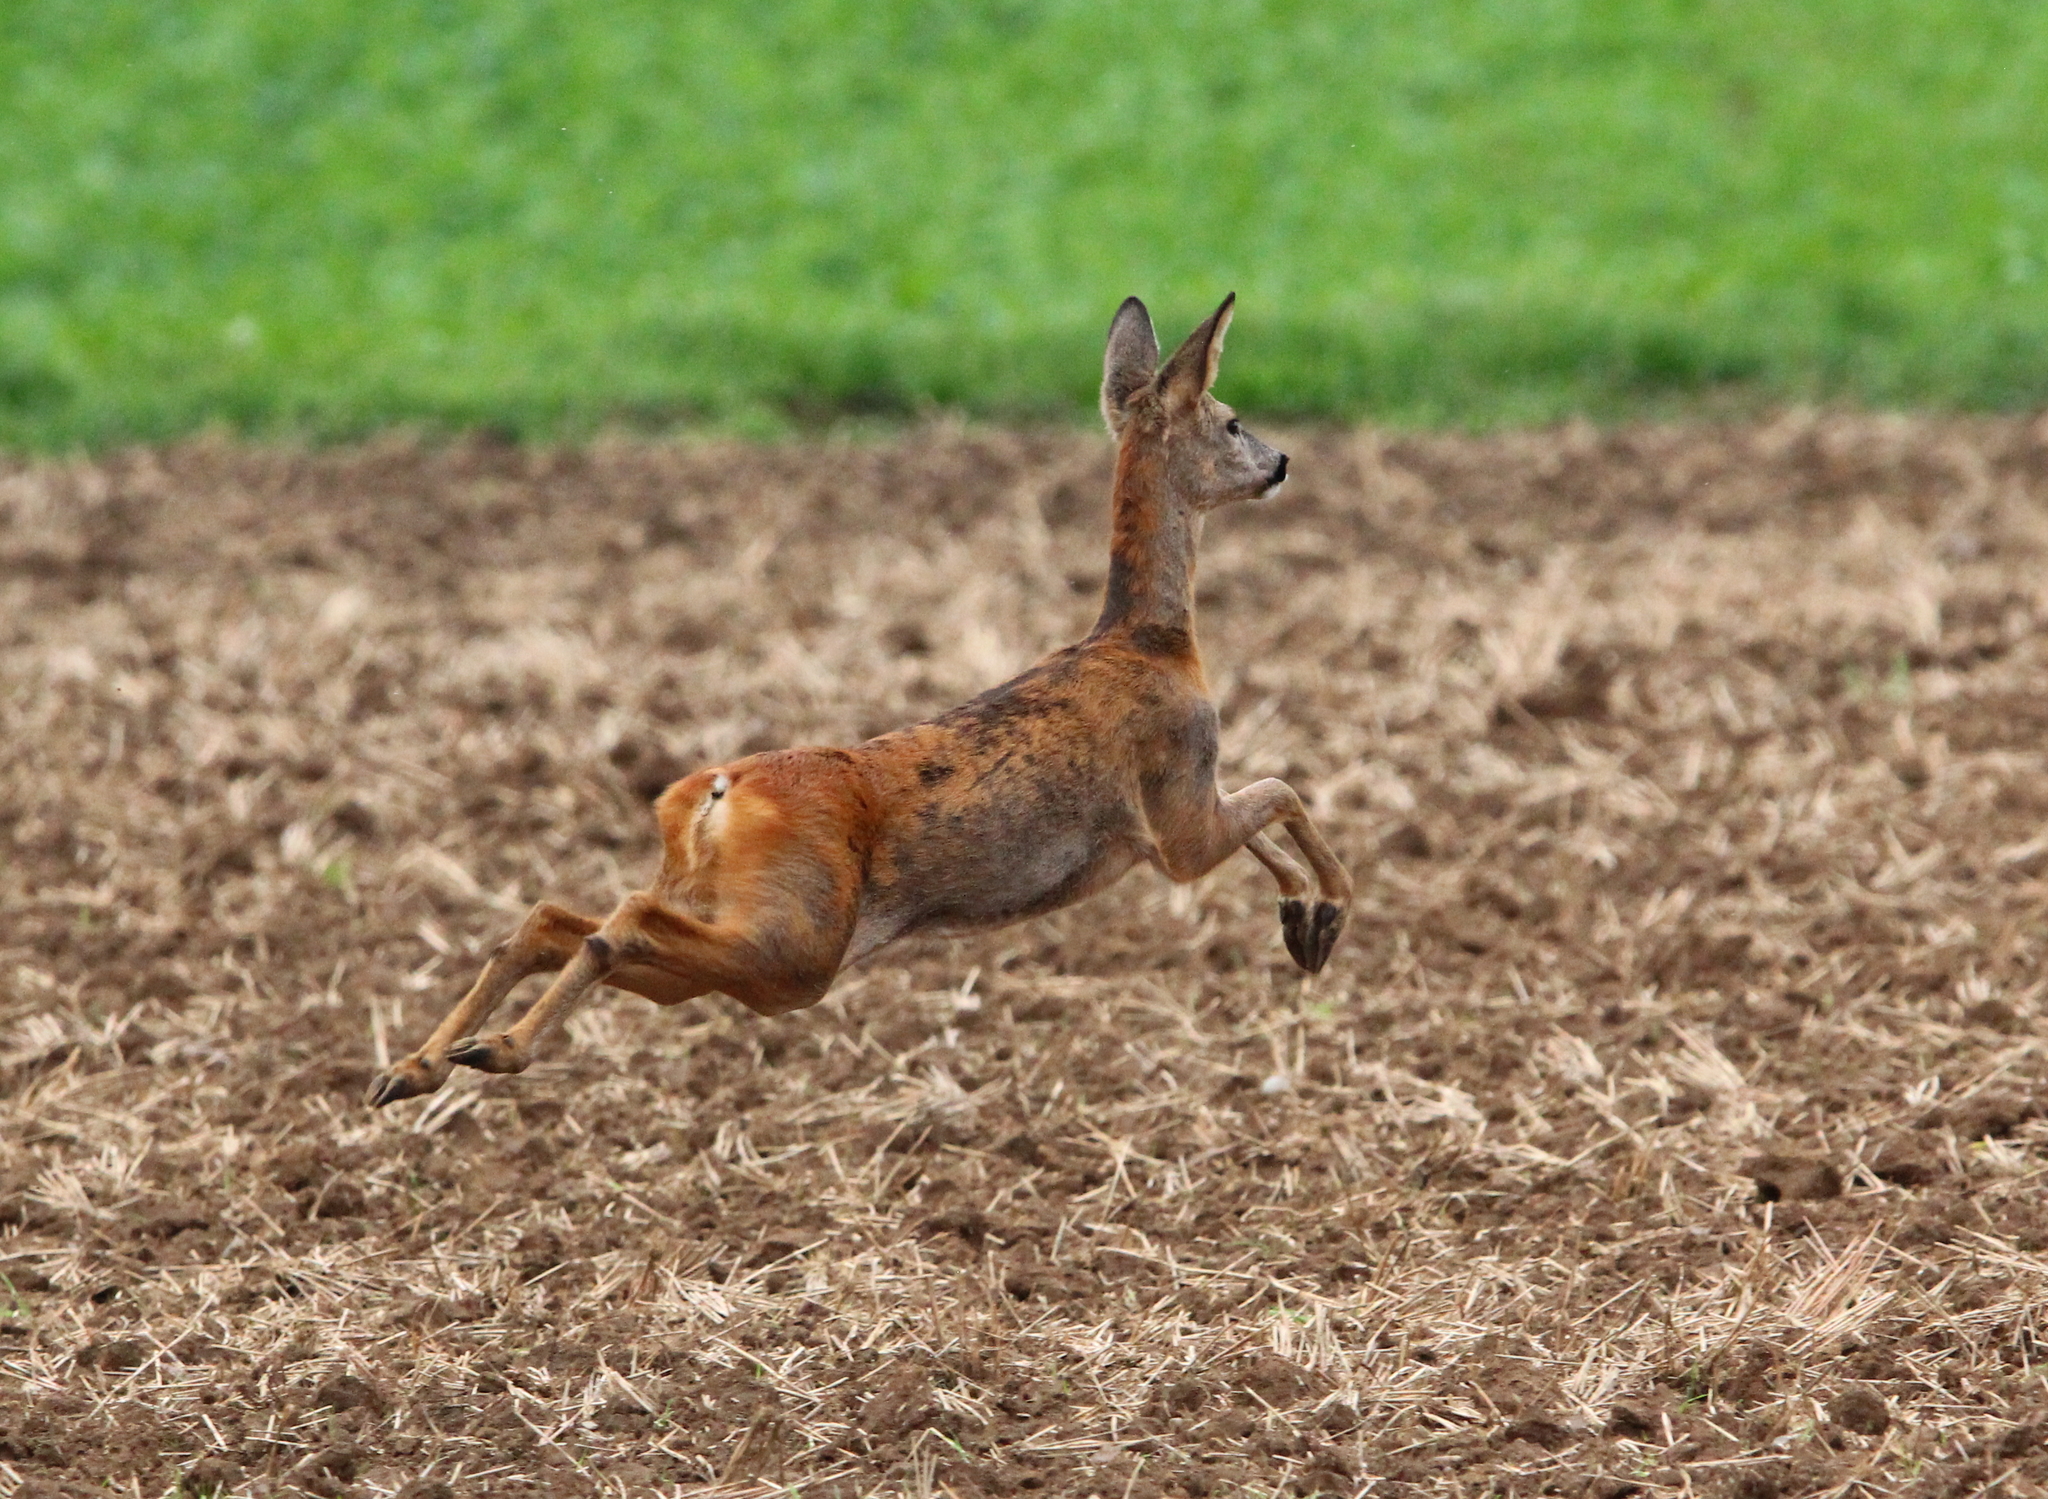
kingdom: Animalia
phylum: Chordata
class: Mammalia
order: Artiodactyla
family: Cervidae
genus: Capreolus
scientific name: Capreolus capreolus
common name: Western roe deer
